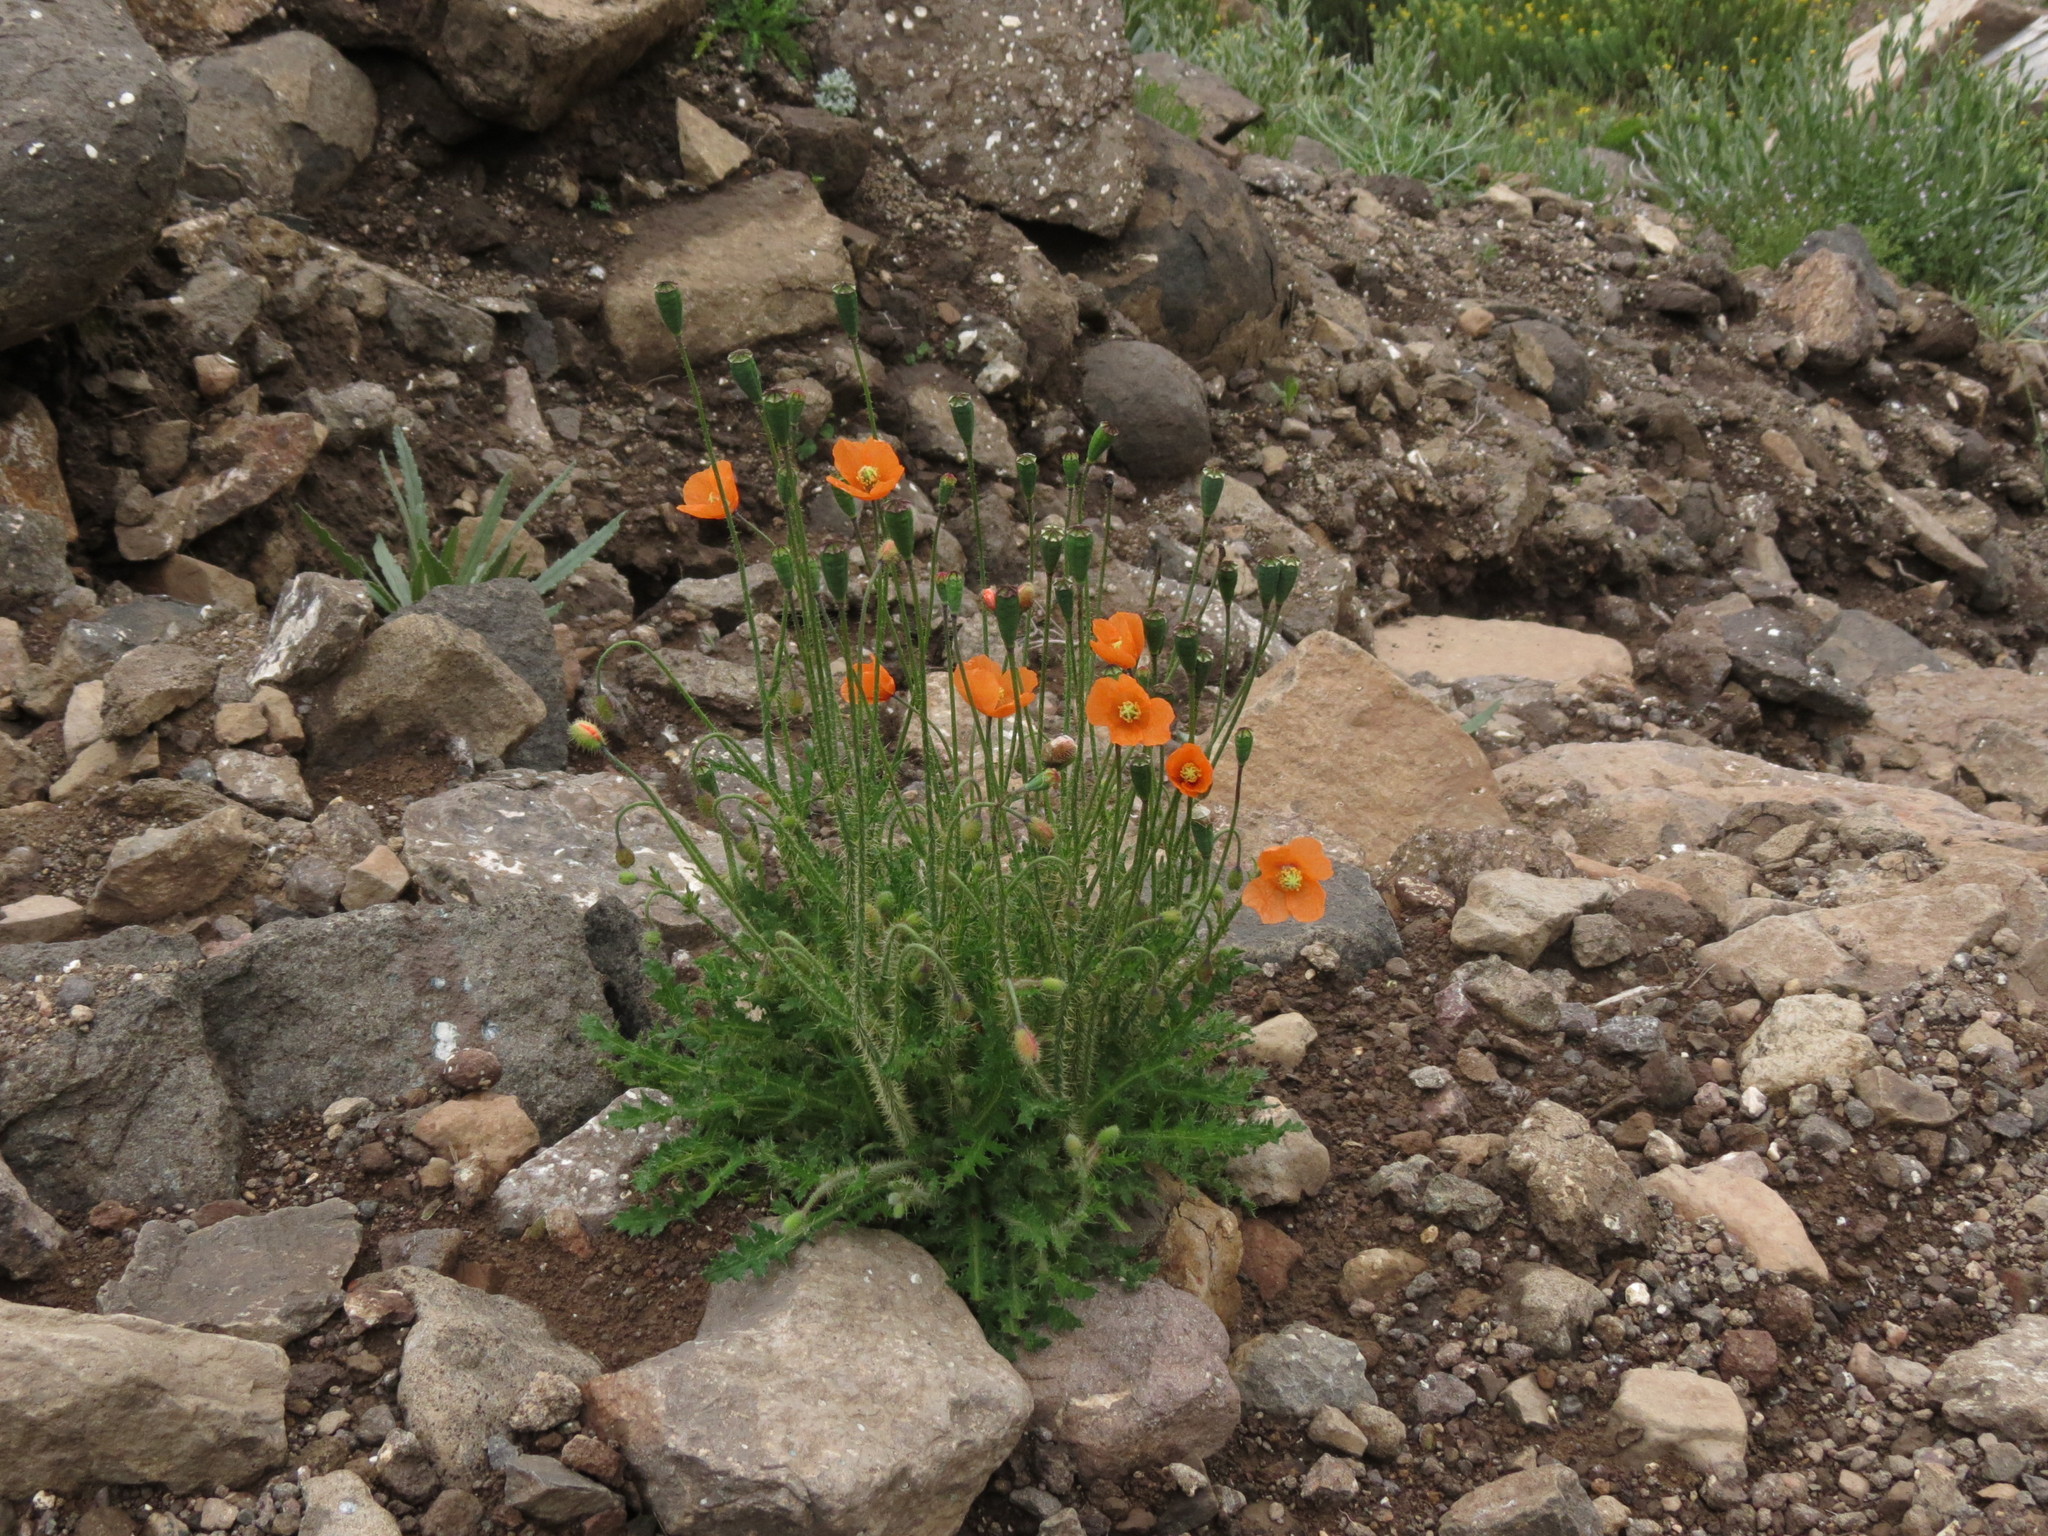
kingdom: Plantae
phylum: Tracheophyta
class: Magnoliopsida
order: Ranunculales
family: Papaveraceae
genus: Papaver
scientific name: Papaver aculeatum
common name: Bristle poppy
